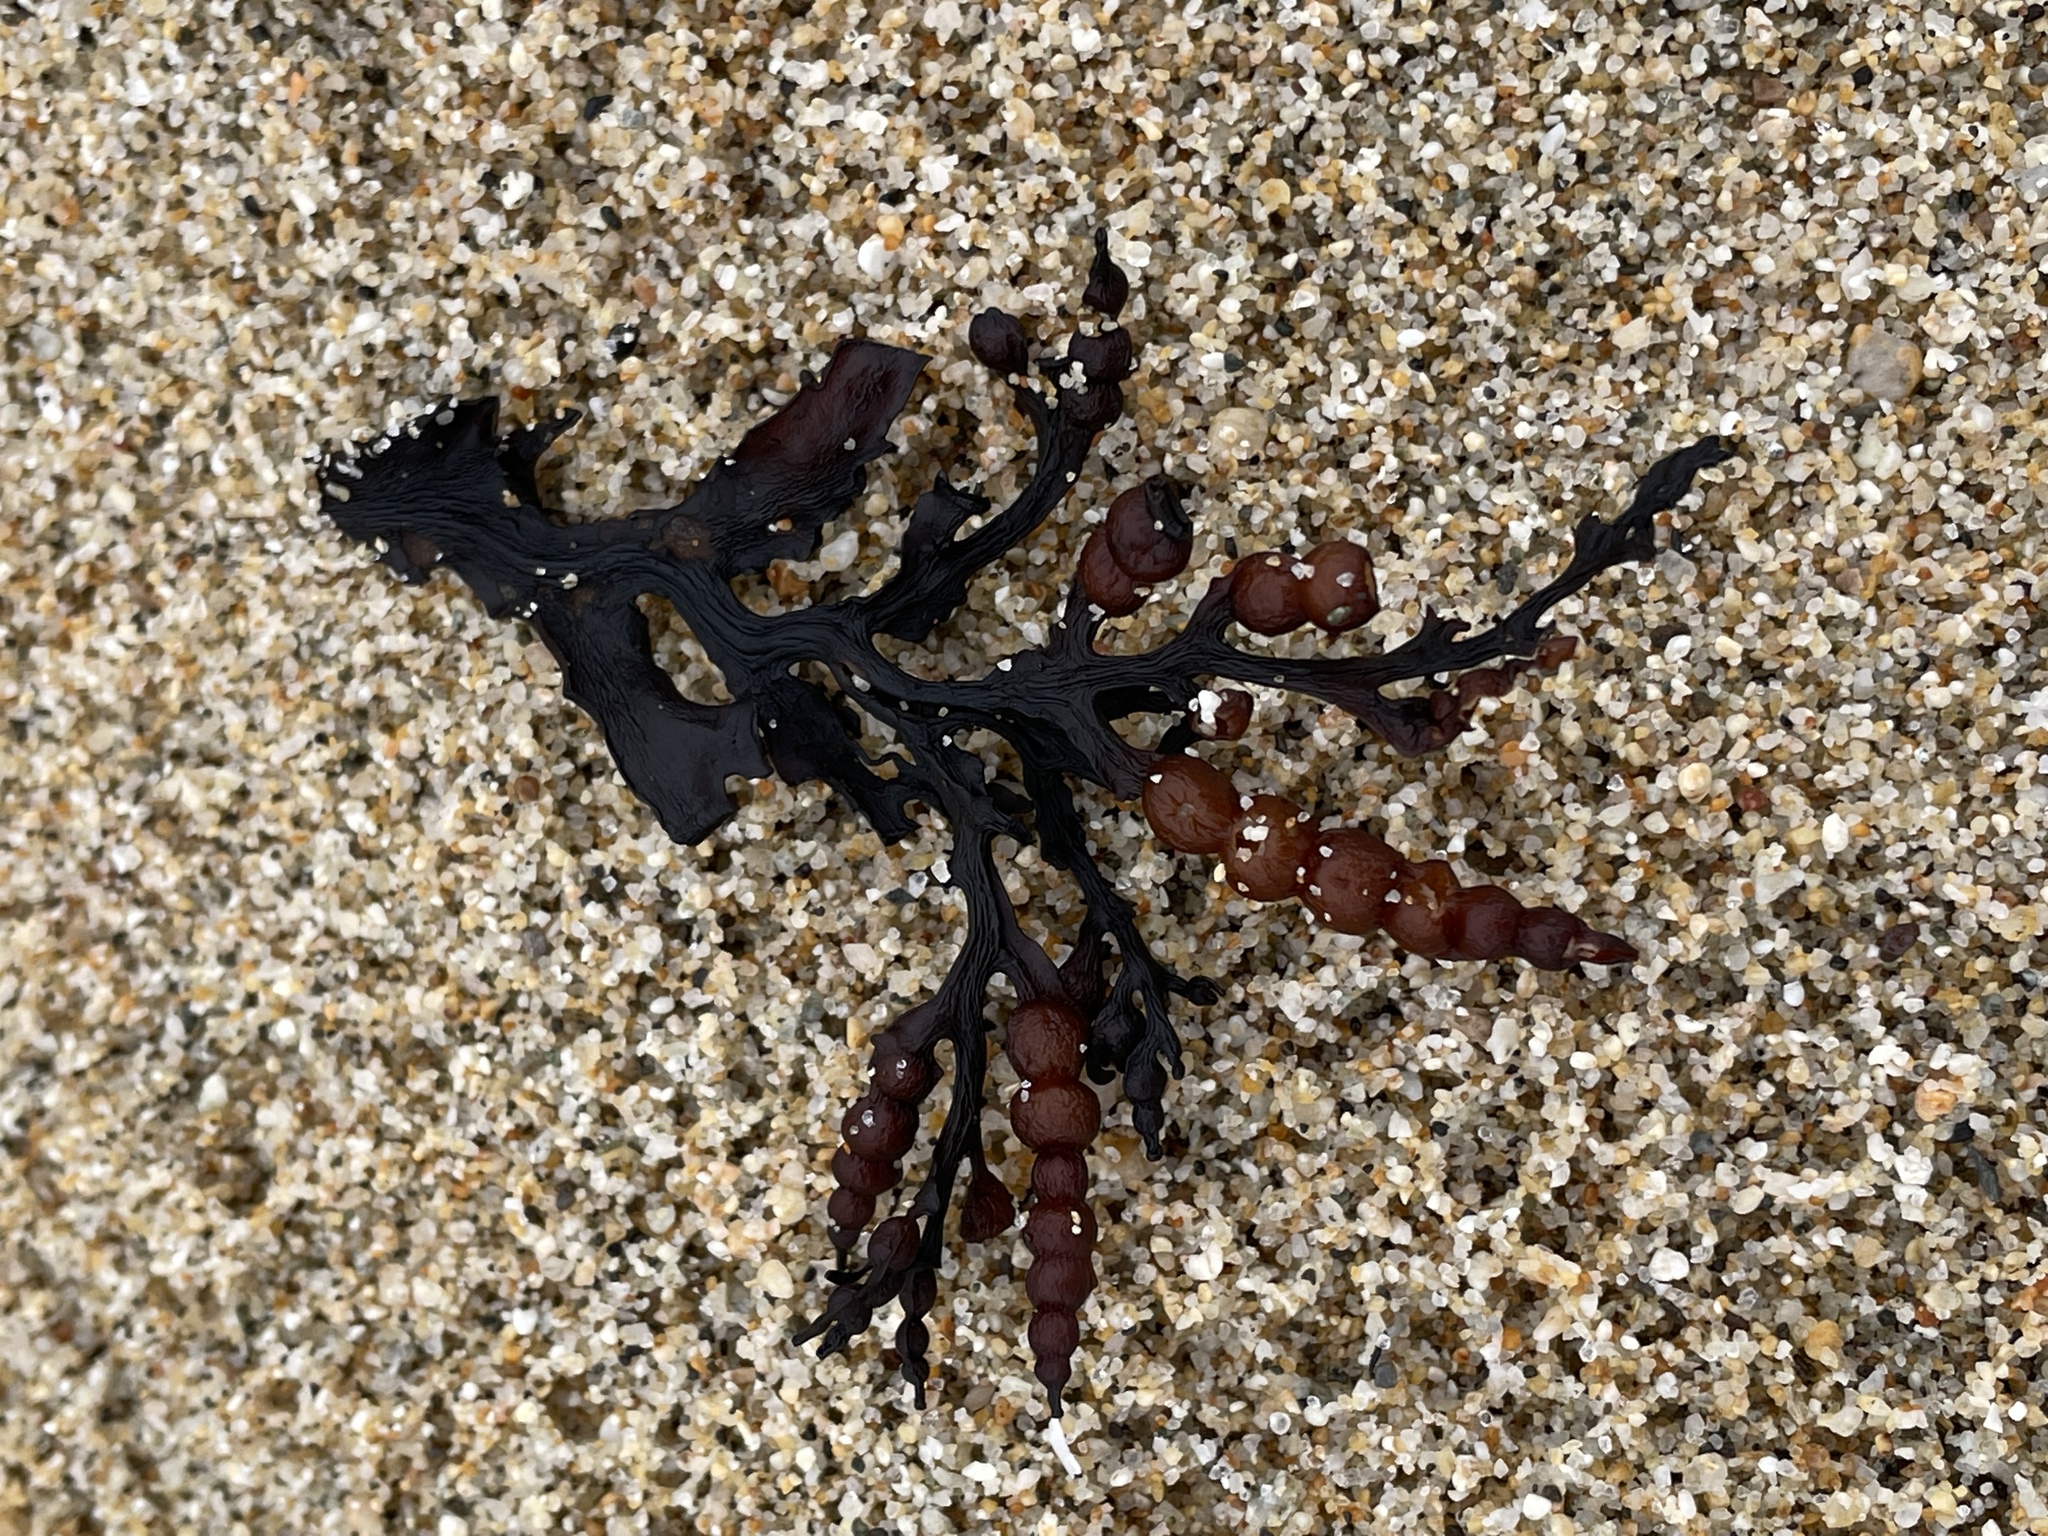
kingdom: Chromista
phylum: Ochrophyta
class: Phaeophyceae
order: Fucales
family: Sargassaceae
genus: Stephanocystis
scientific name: Stephanocystis
